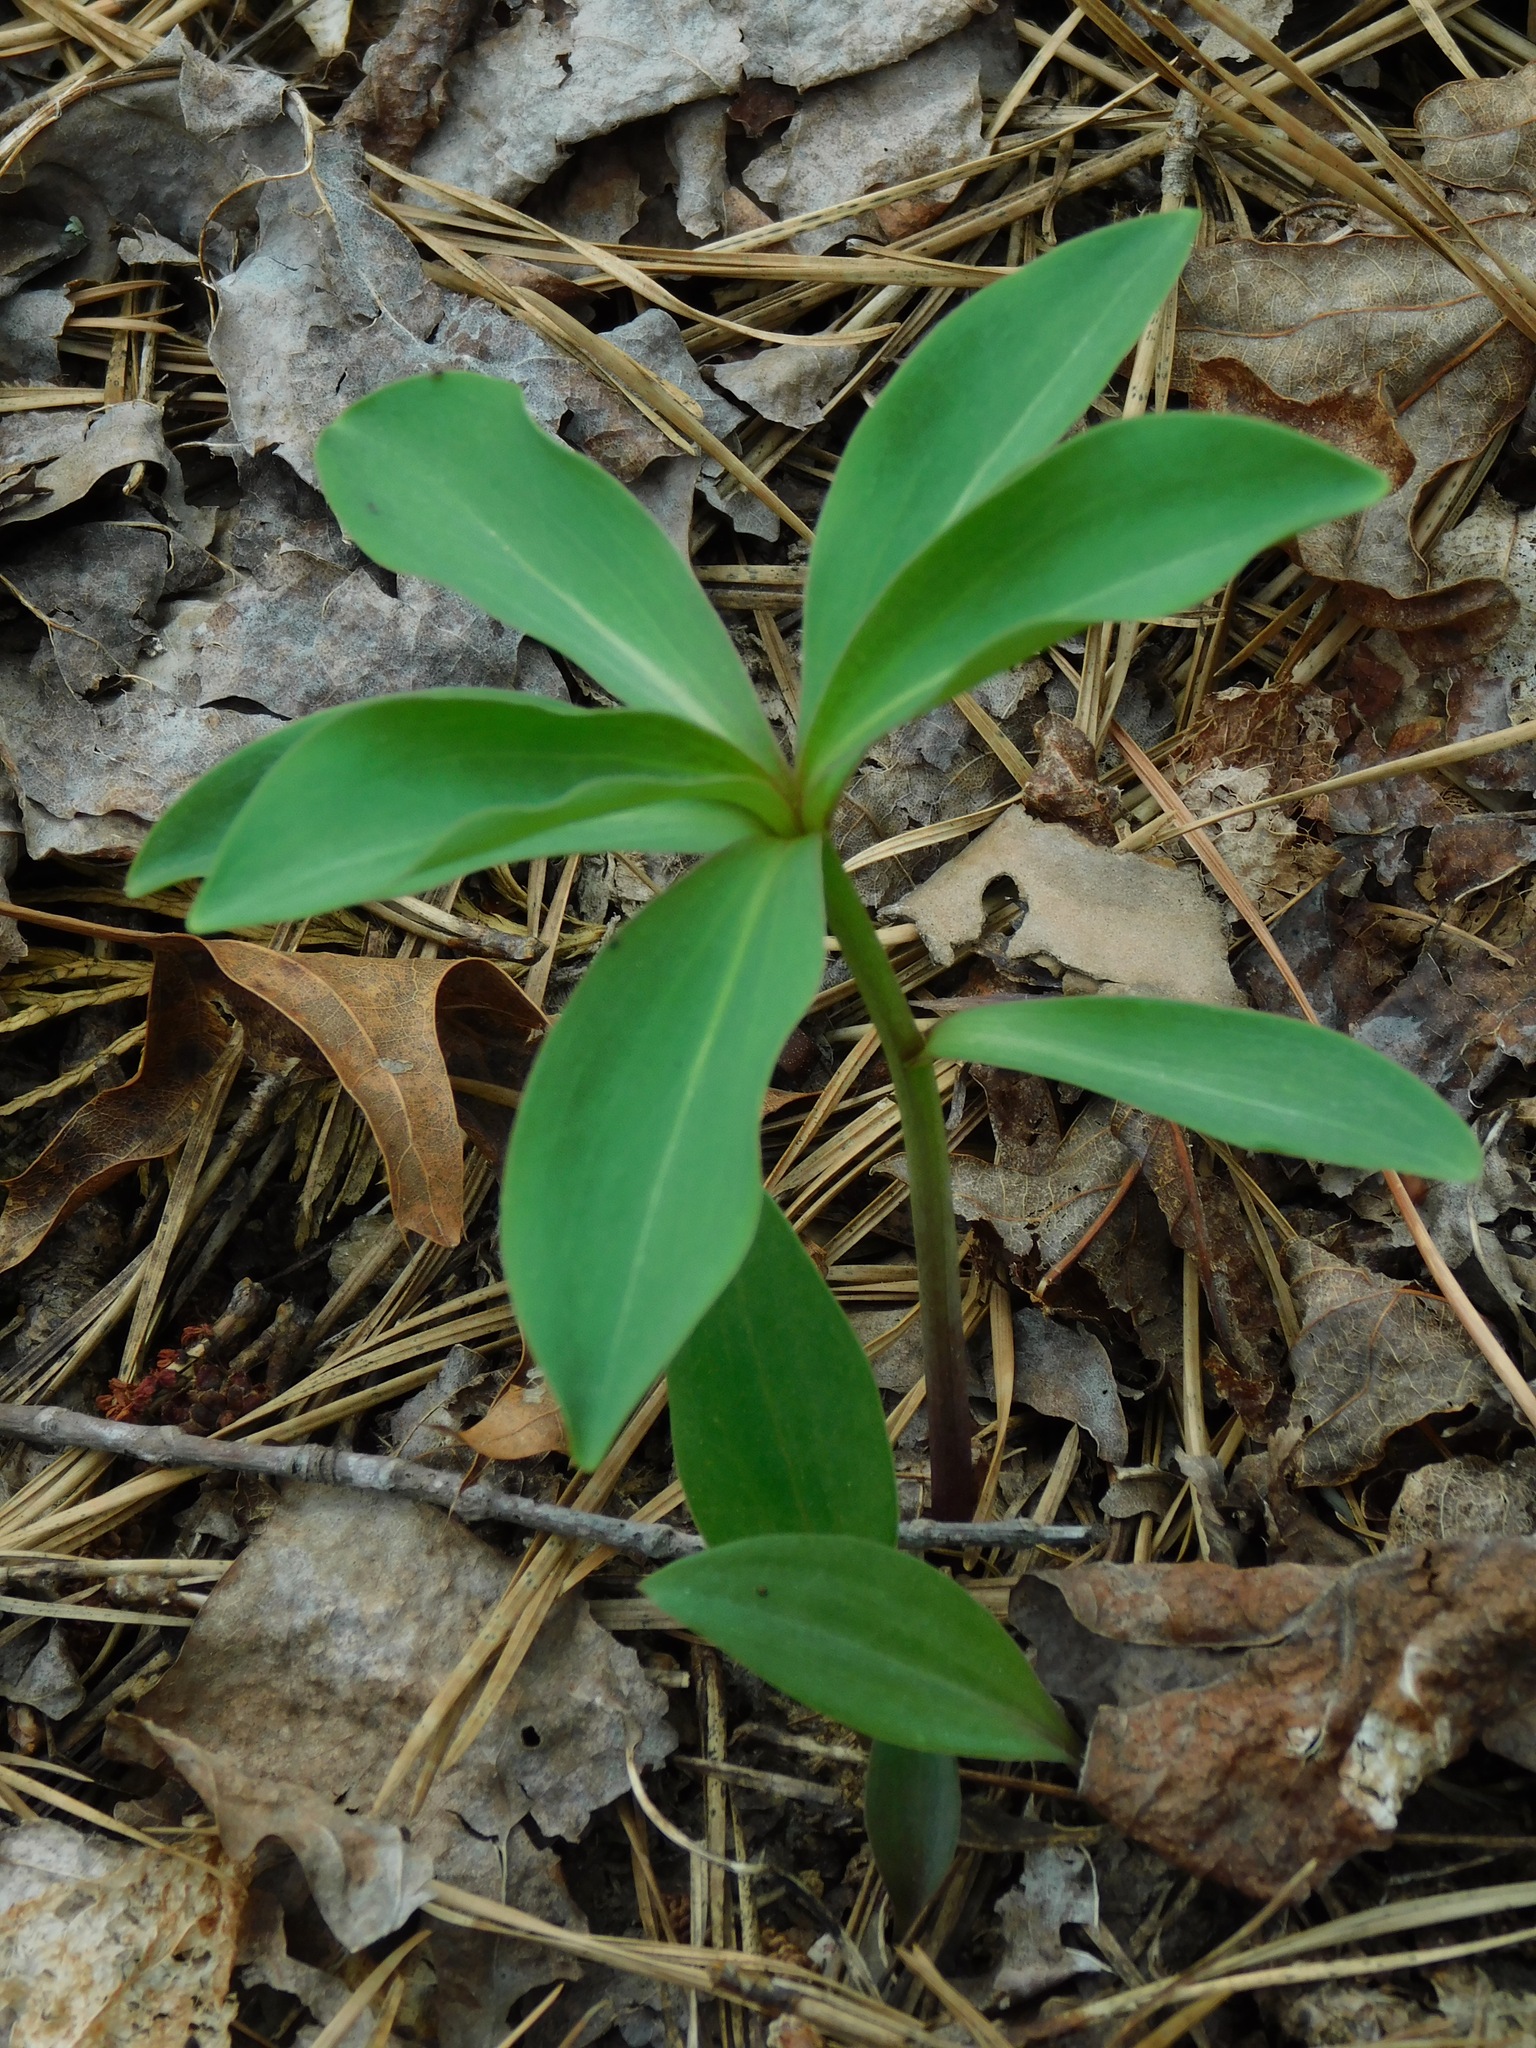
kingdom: Plantae
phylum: Tracheophyta
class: Liliopsida
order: Liliales
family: Liliaceae
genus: Lilium
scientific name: Lilium michauxii
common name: Carolina lily
